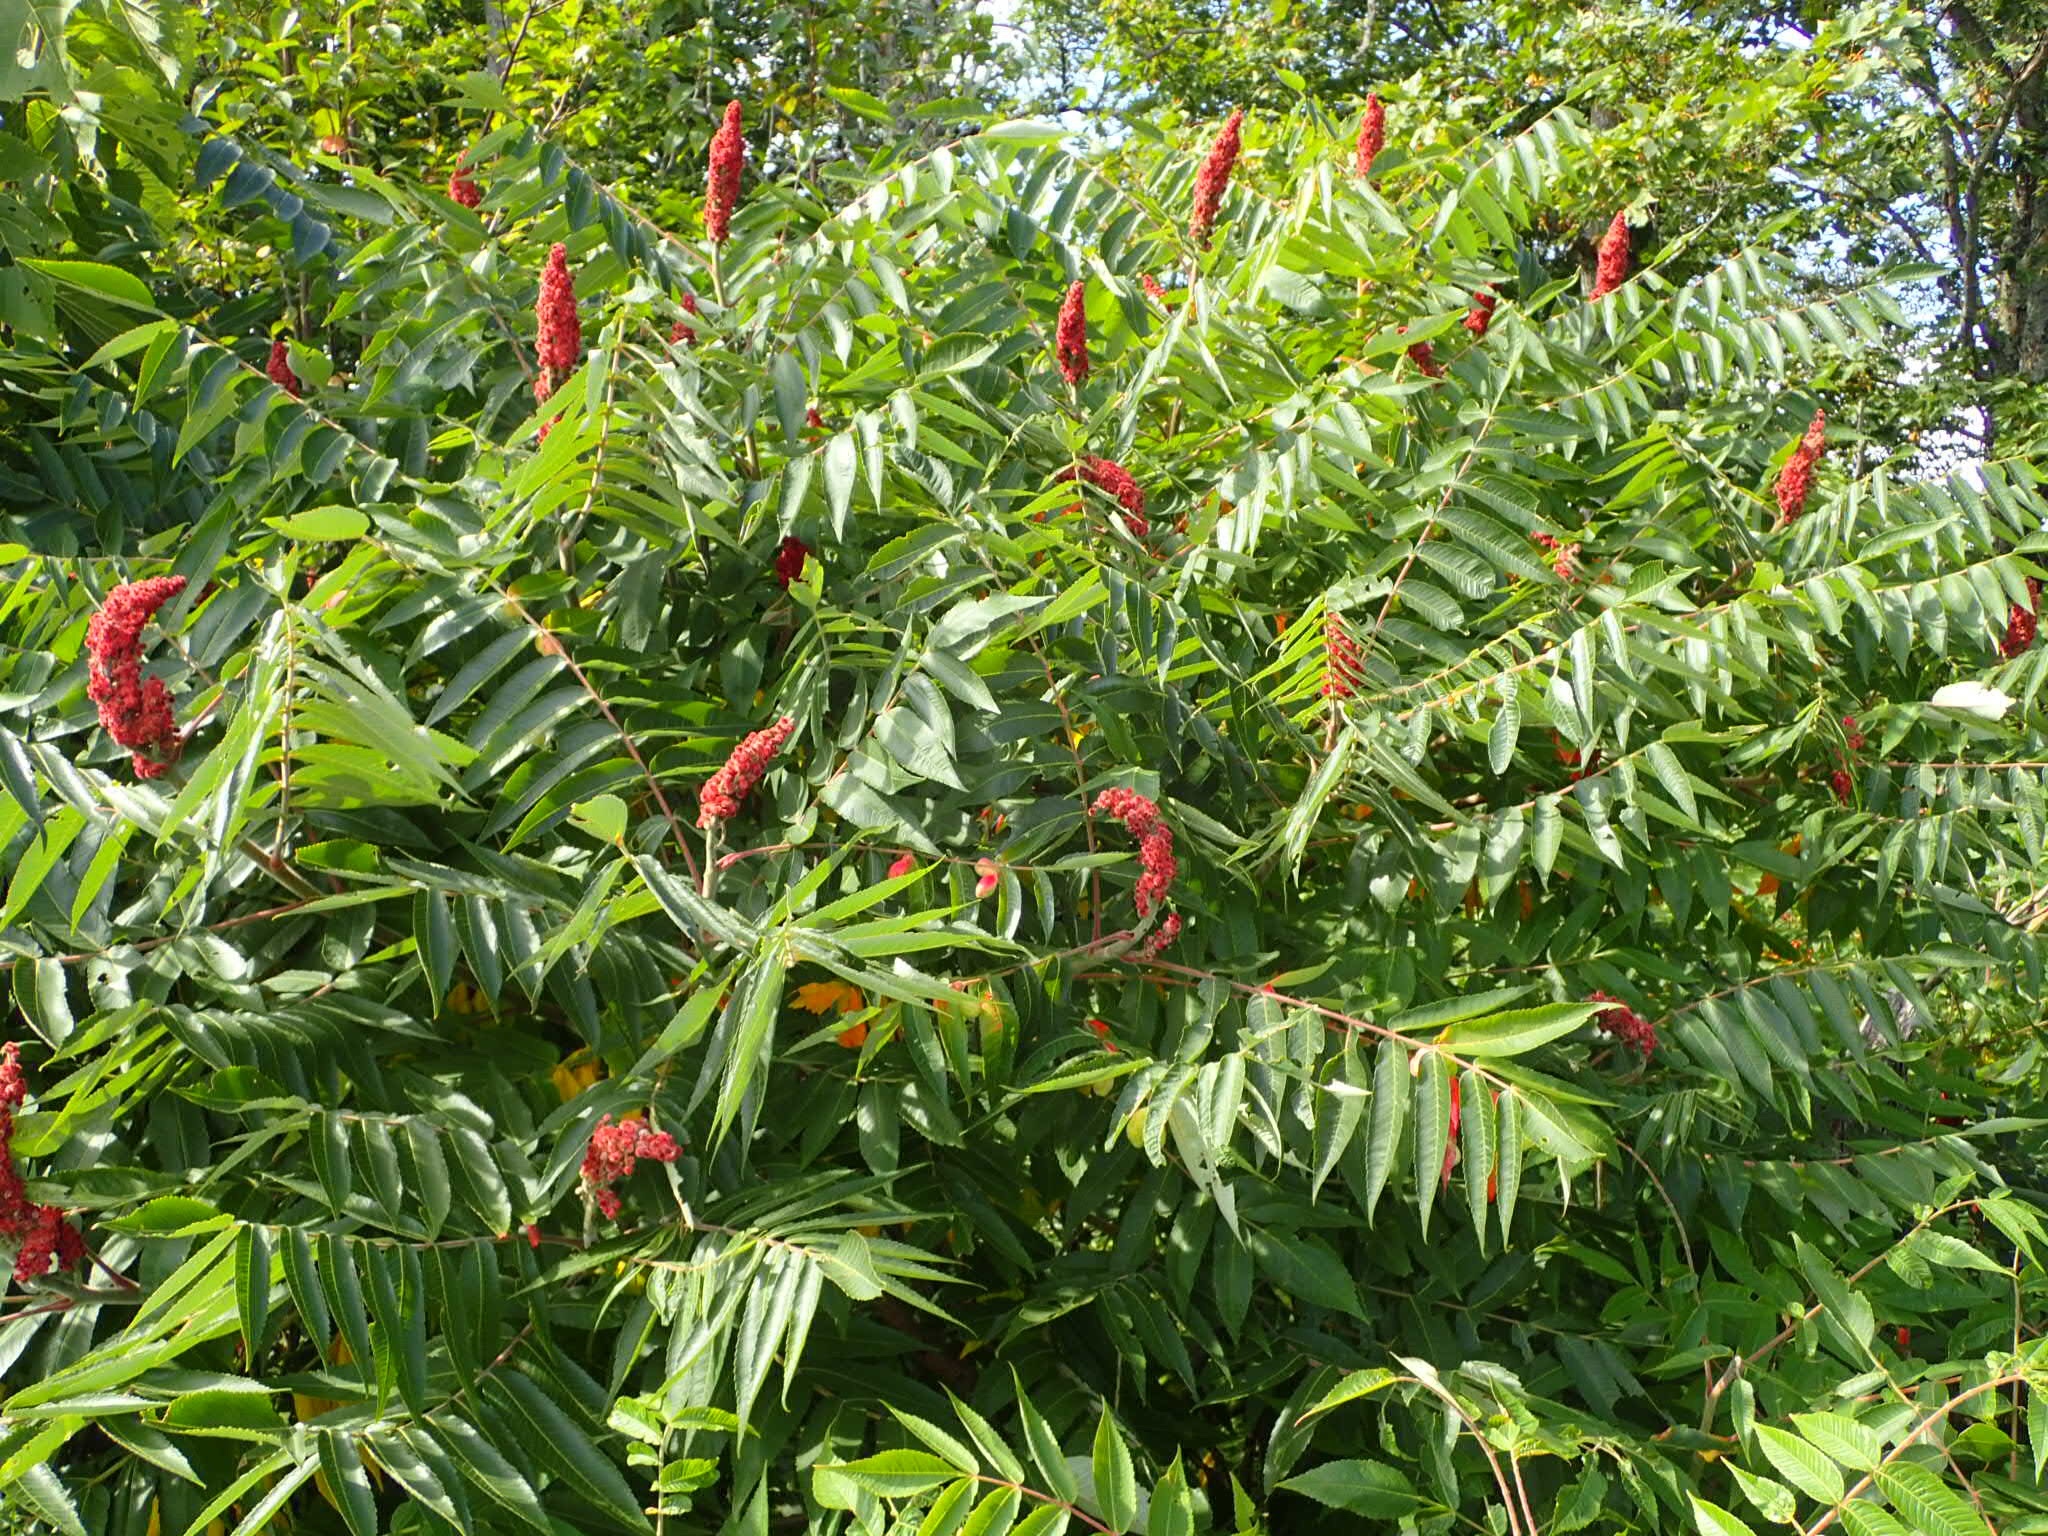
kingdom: Plantae
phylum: Tracheophyta
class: Magnoliopsida
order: Sapindales
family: Anacardiaceae
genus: Rhus
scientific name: Rhus typhina
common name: Staghorn sumac
